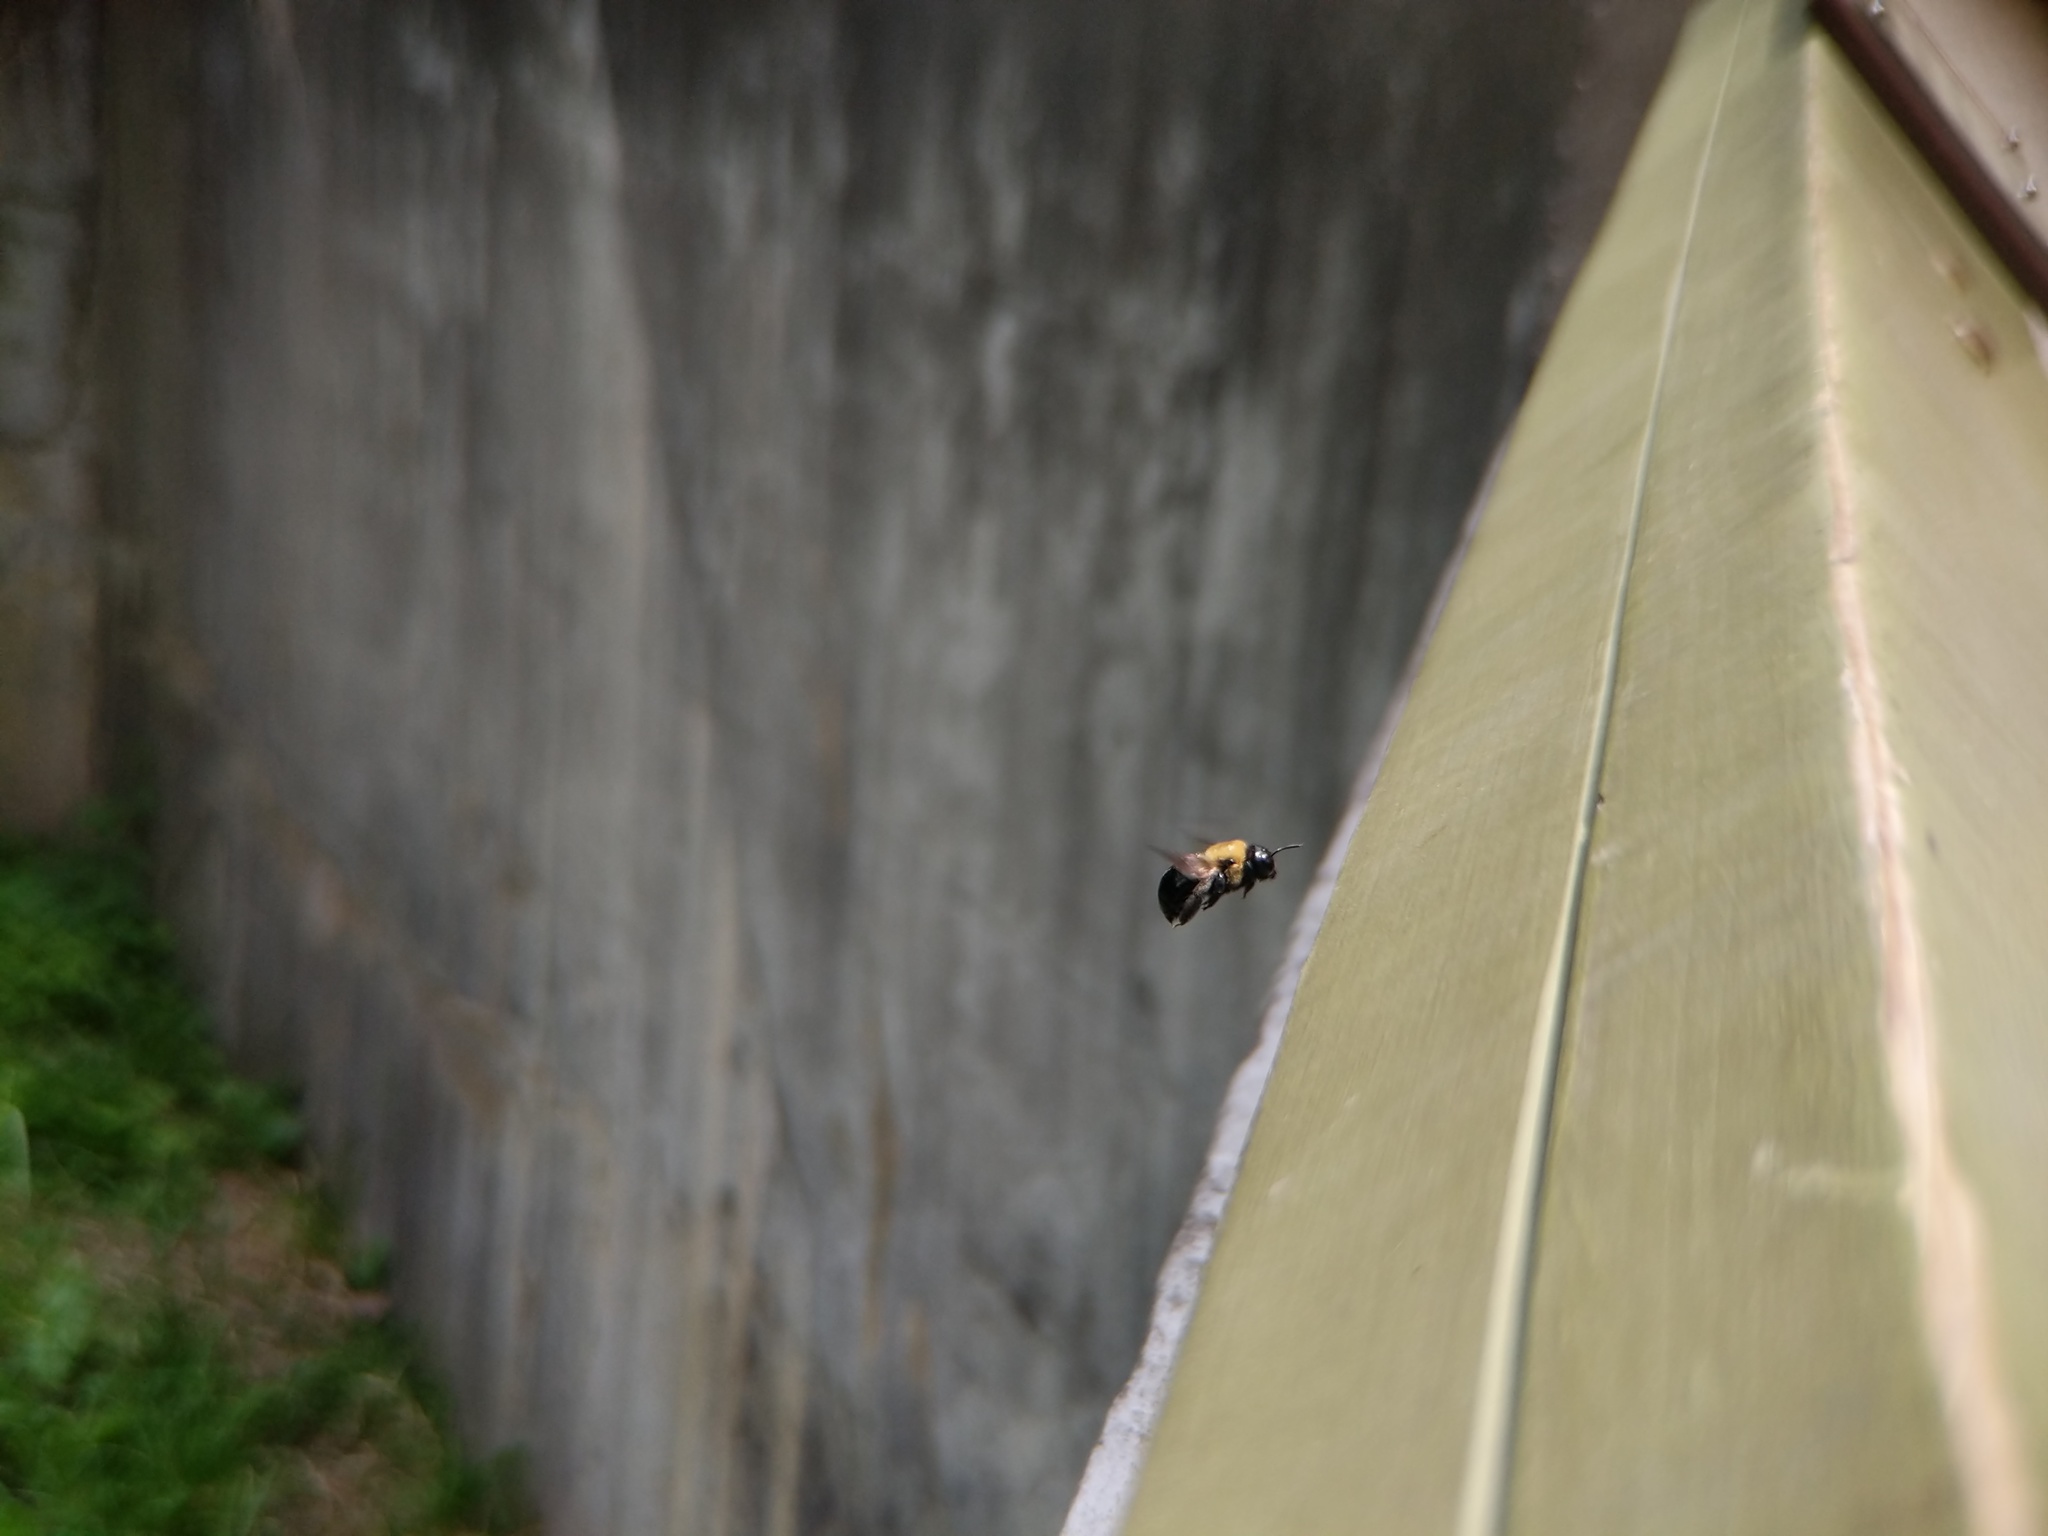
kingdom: Animalia
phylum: Arthropoda
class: Insecta
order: Hymenoptera
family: Apidae
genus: Xylocopa
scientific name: Xylocopa virginica
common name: Carpenter bee
